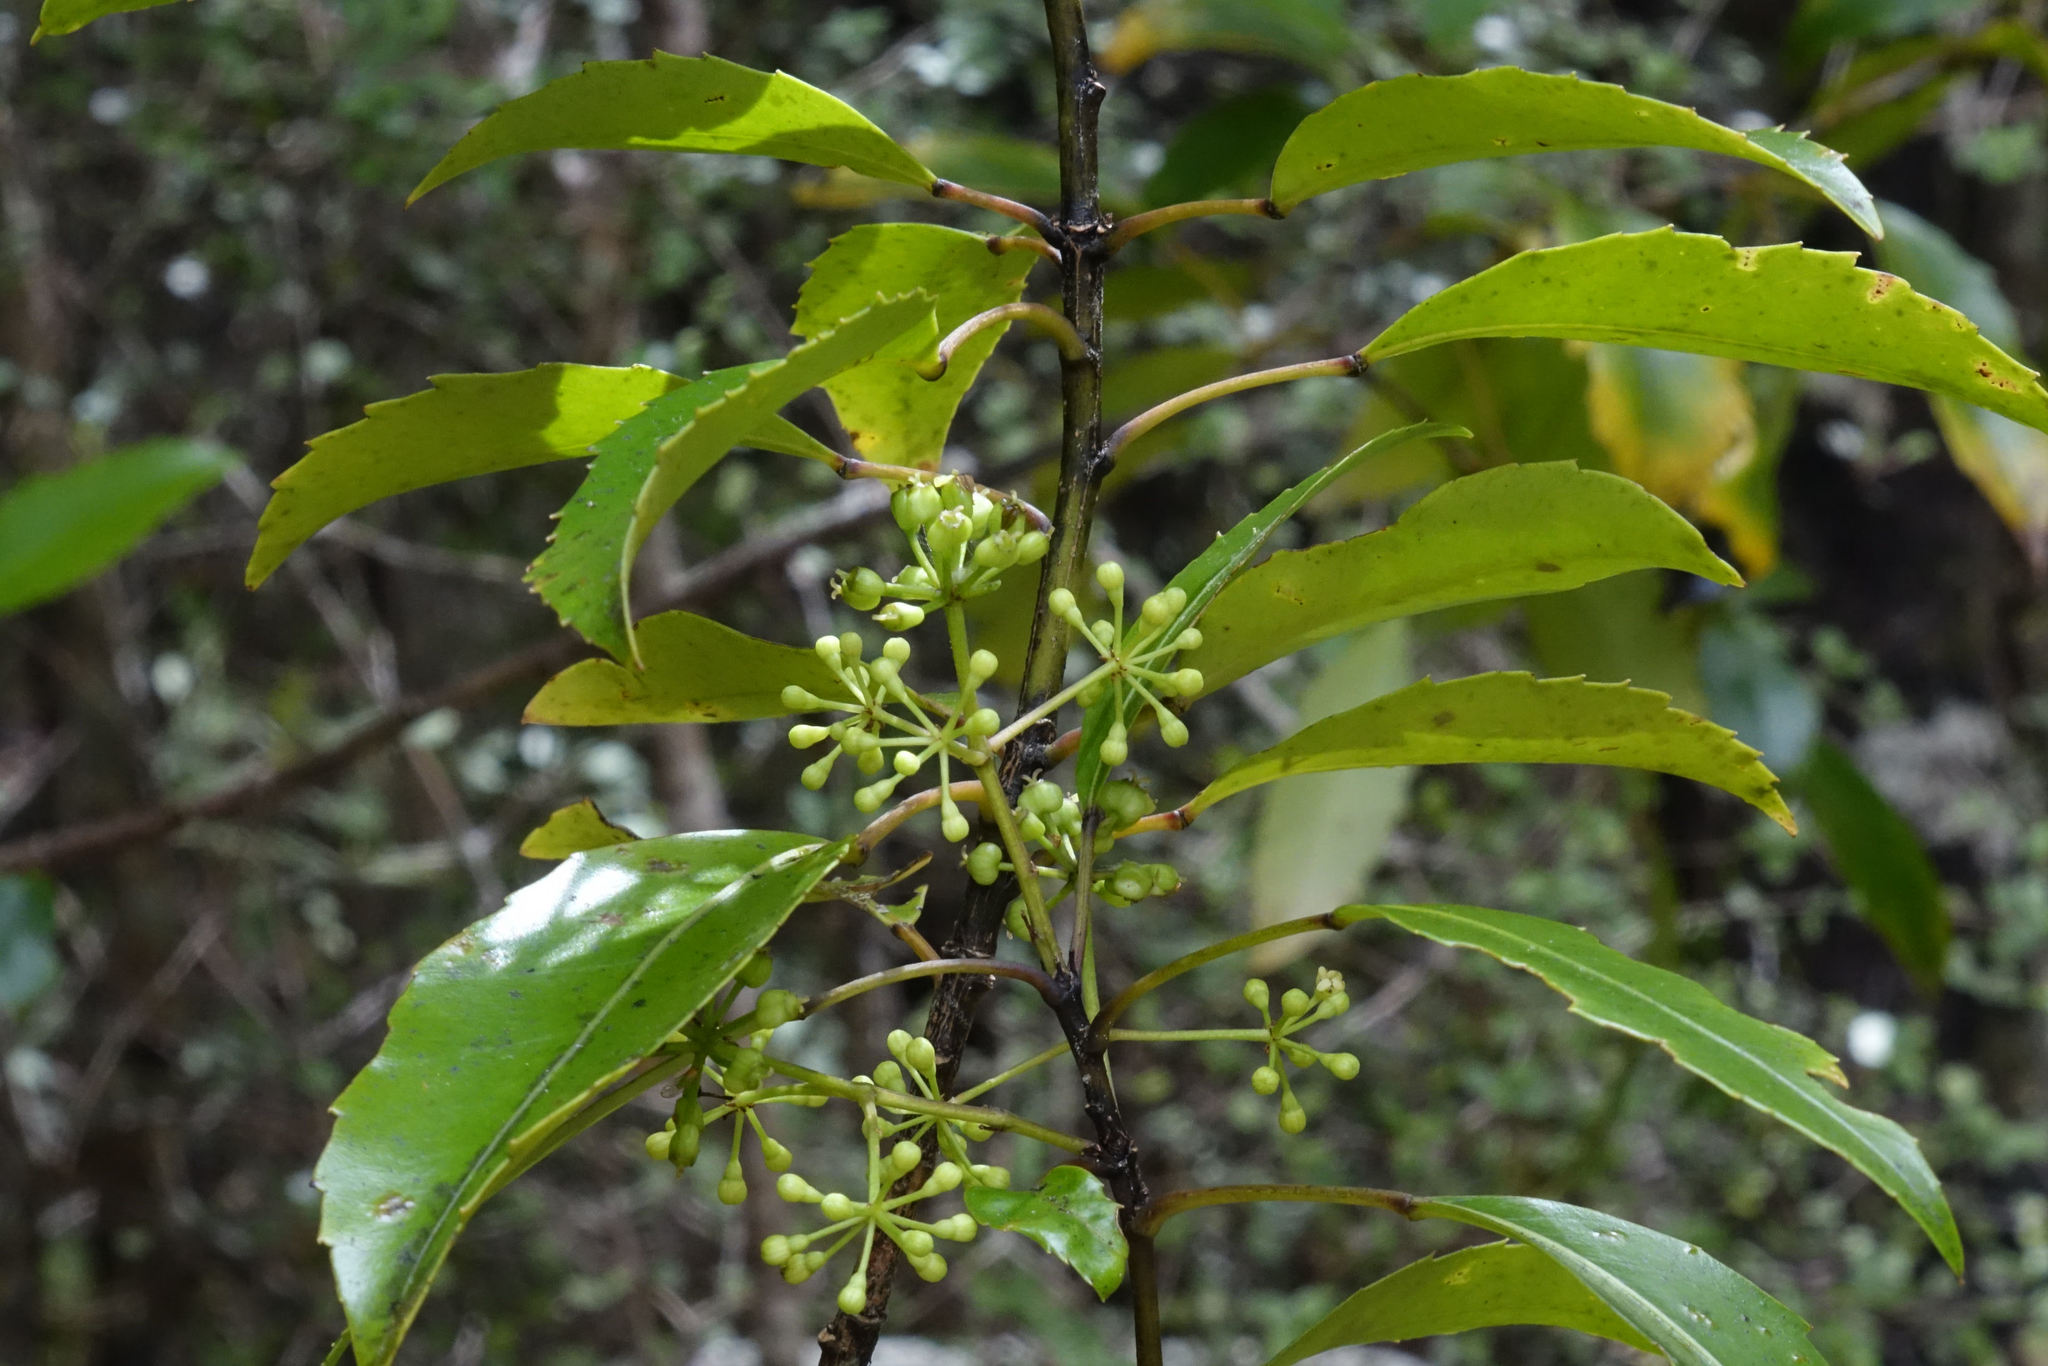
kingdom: Plantae
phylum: Tracheophyta
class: Magnoliopsida
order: Apiales
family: Araliaceae
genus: Raukaua
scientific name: Raukaua simplex
